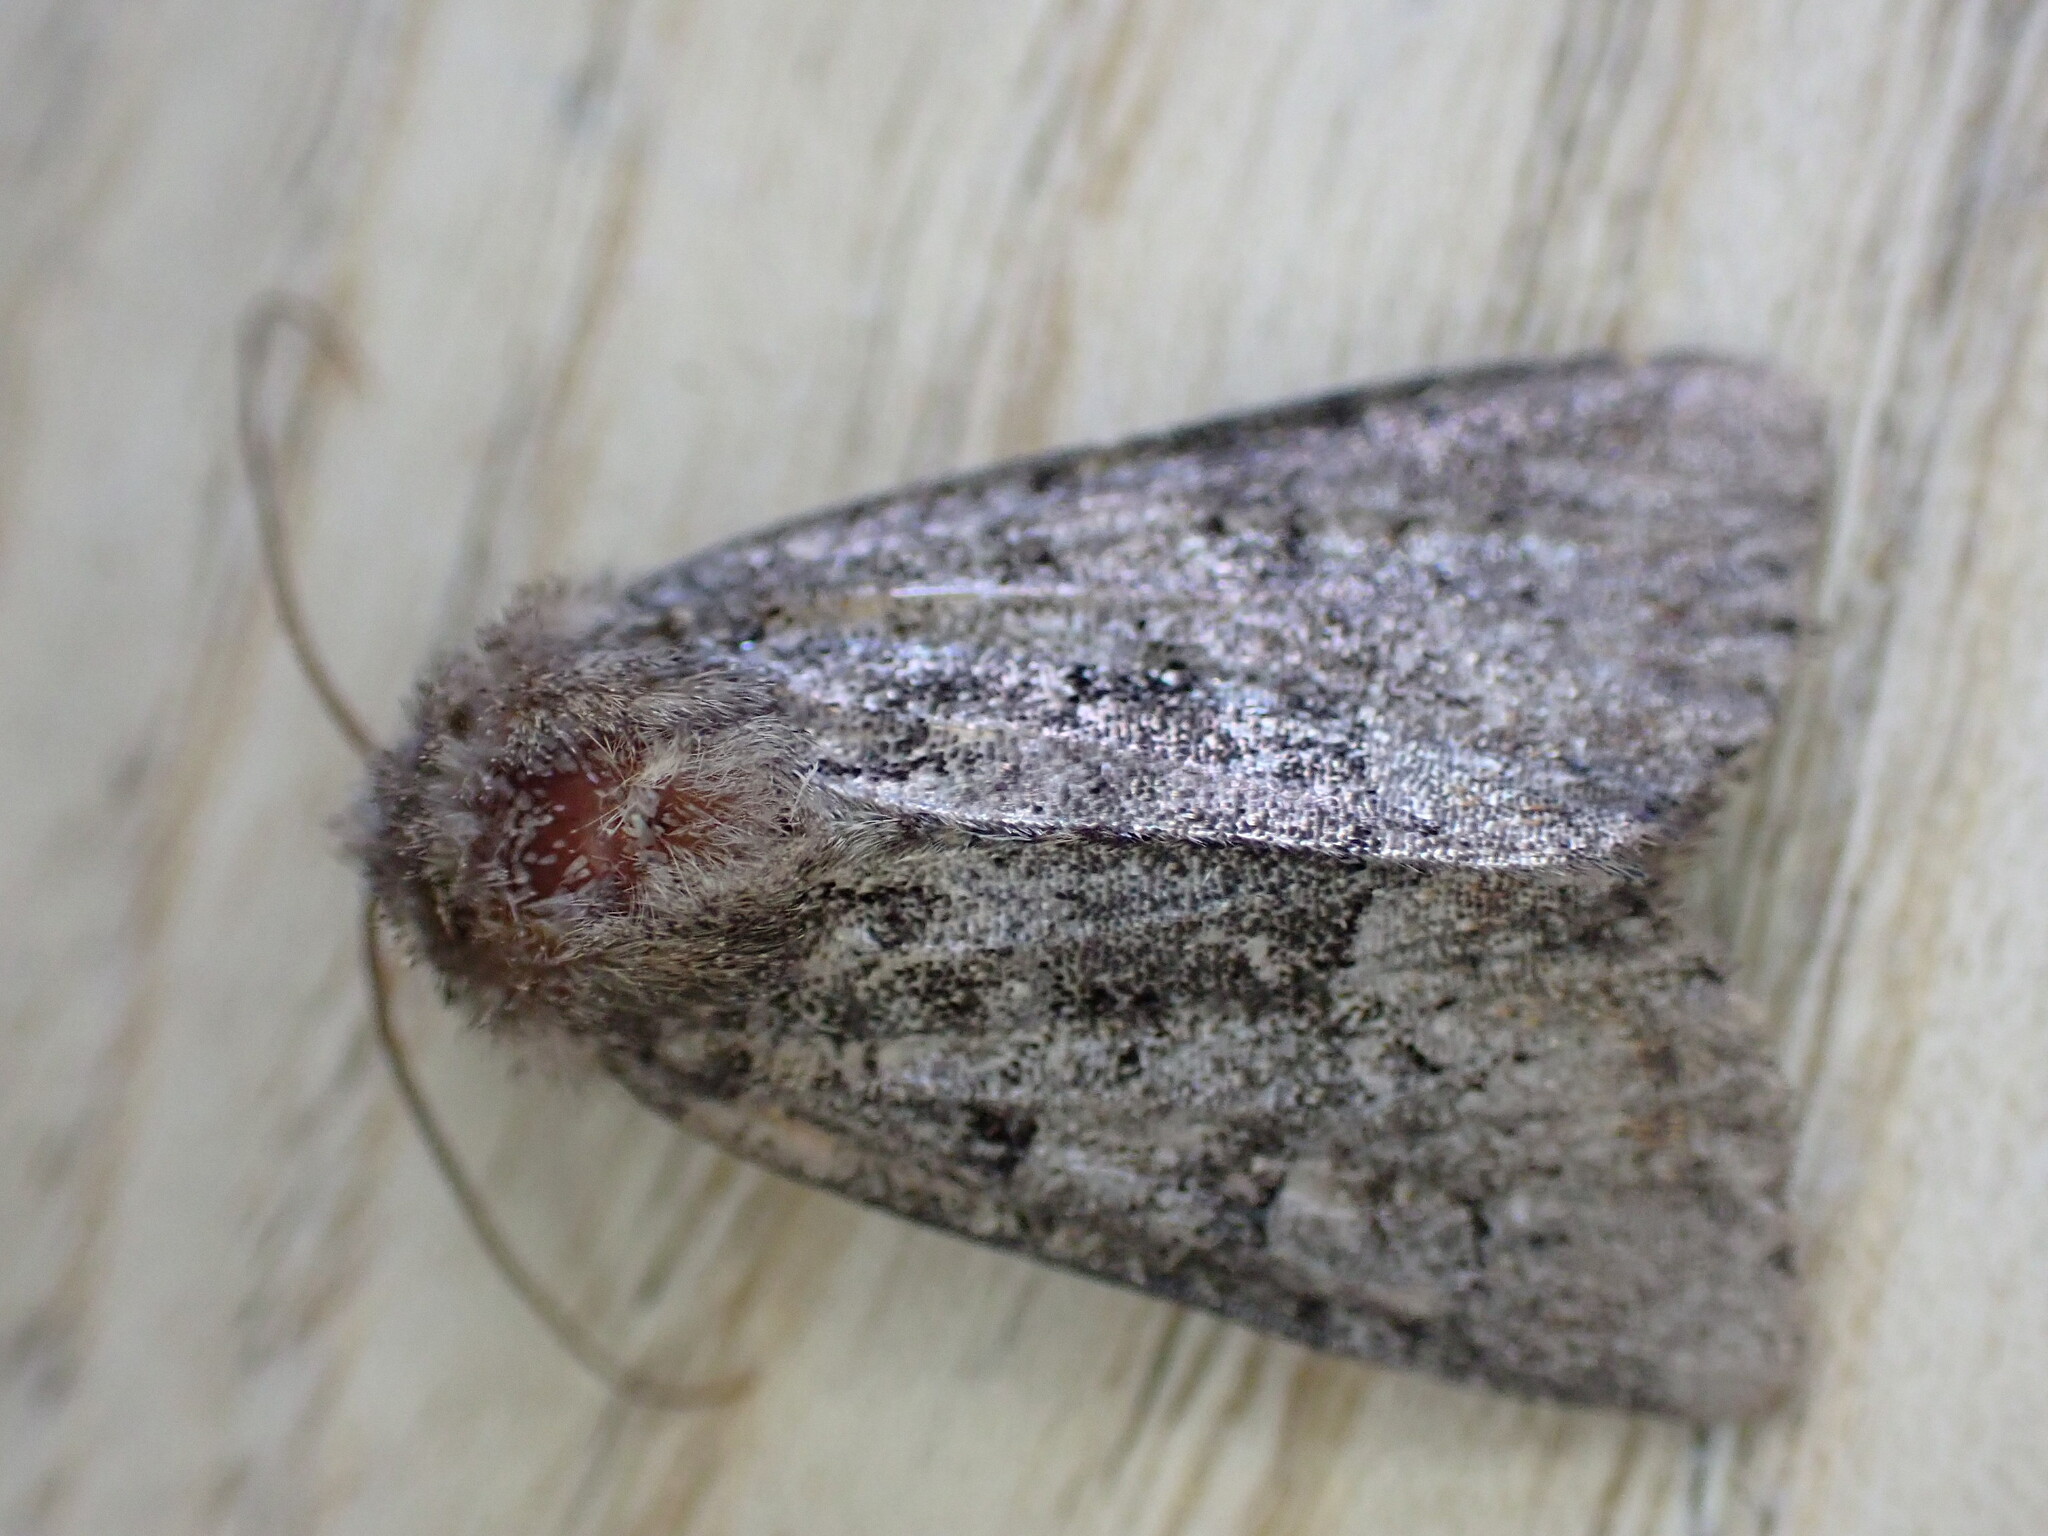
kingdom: Animalia
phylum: Arthropoda
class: Insecta
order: Lepidoptera
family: Noctuidae
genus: Oligia
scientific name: Oligia latruncula
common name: Tawny marbled minor
